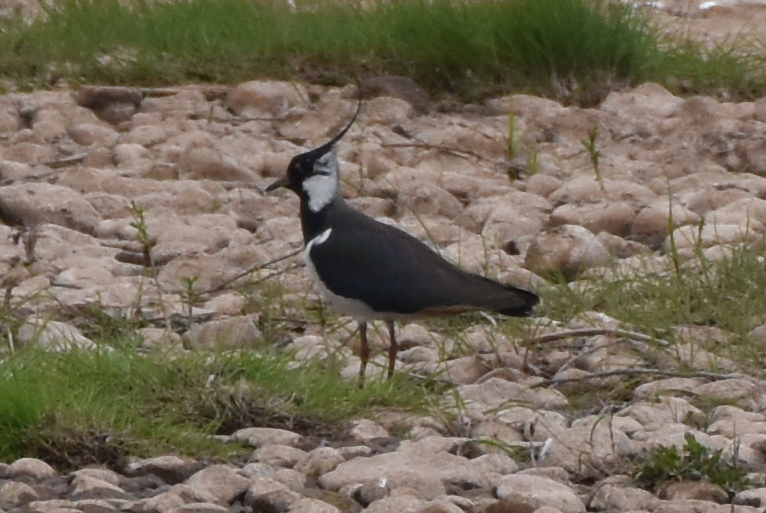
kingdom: Animalia
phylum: Chordata
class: Aves
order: Charadriiformes
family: Charadriidae
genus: Vanellus
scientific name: Vanellus vanellus
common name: Northern lapwing
